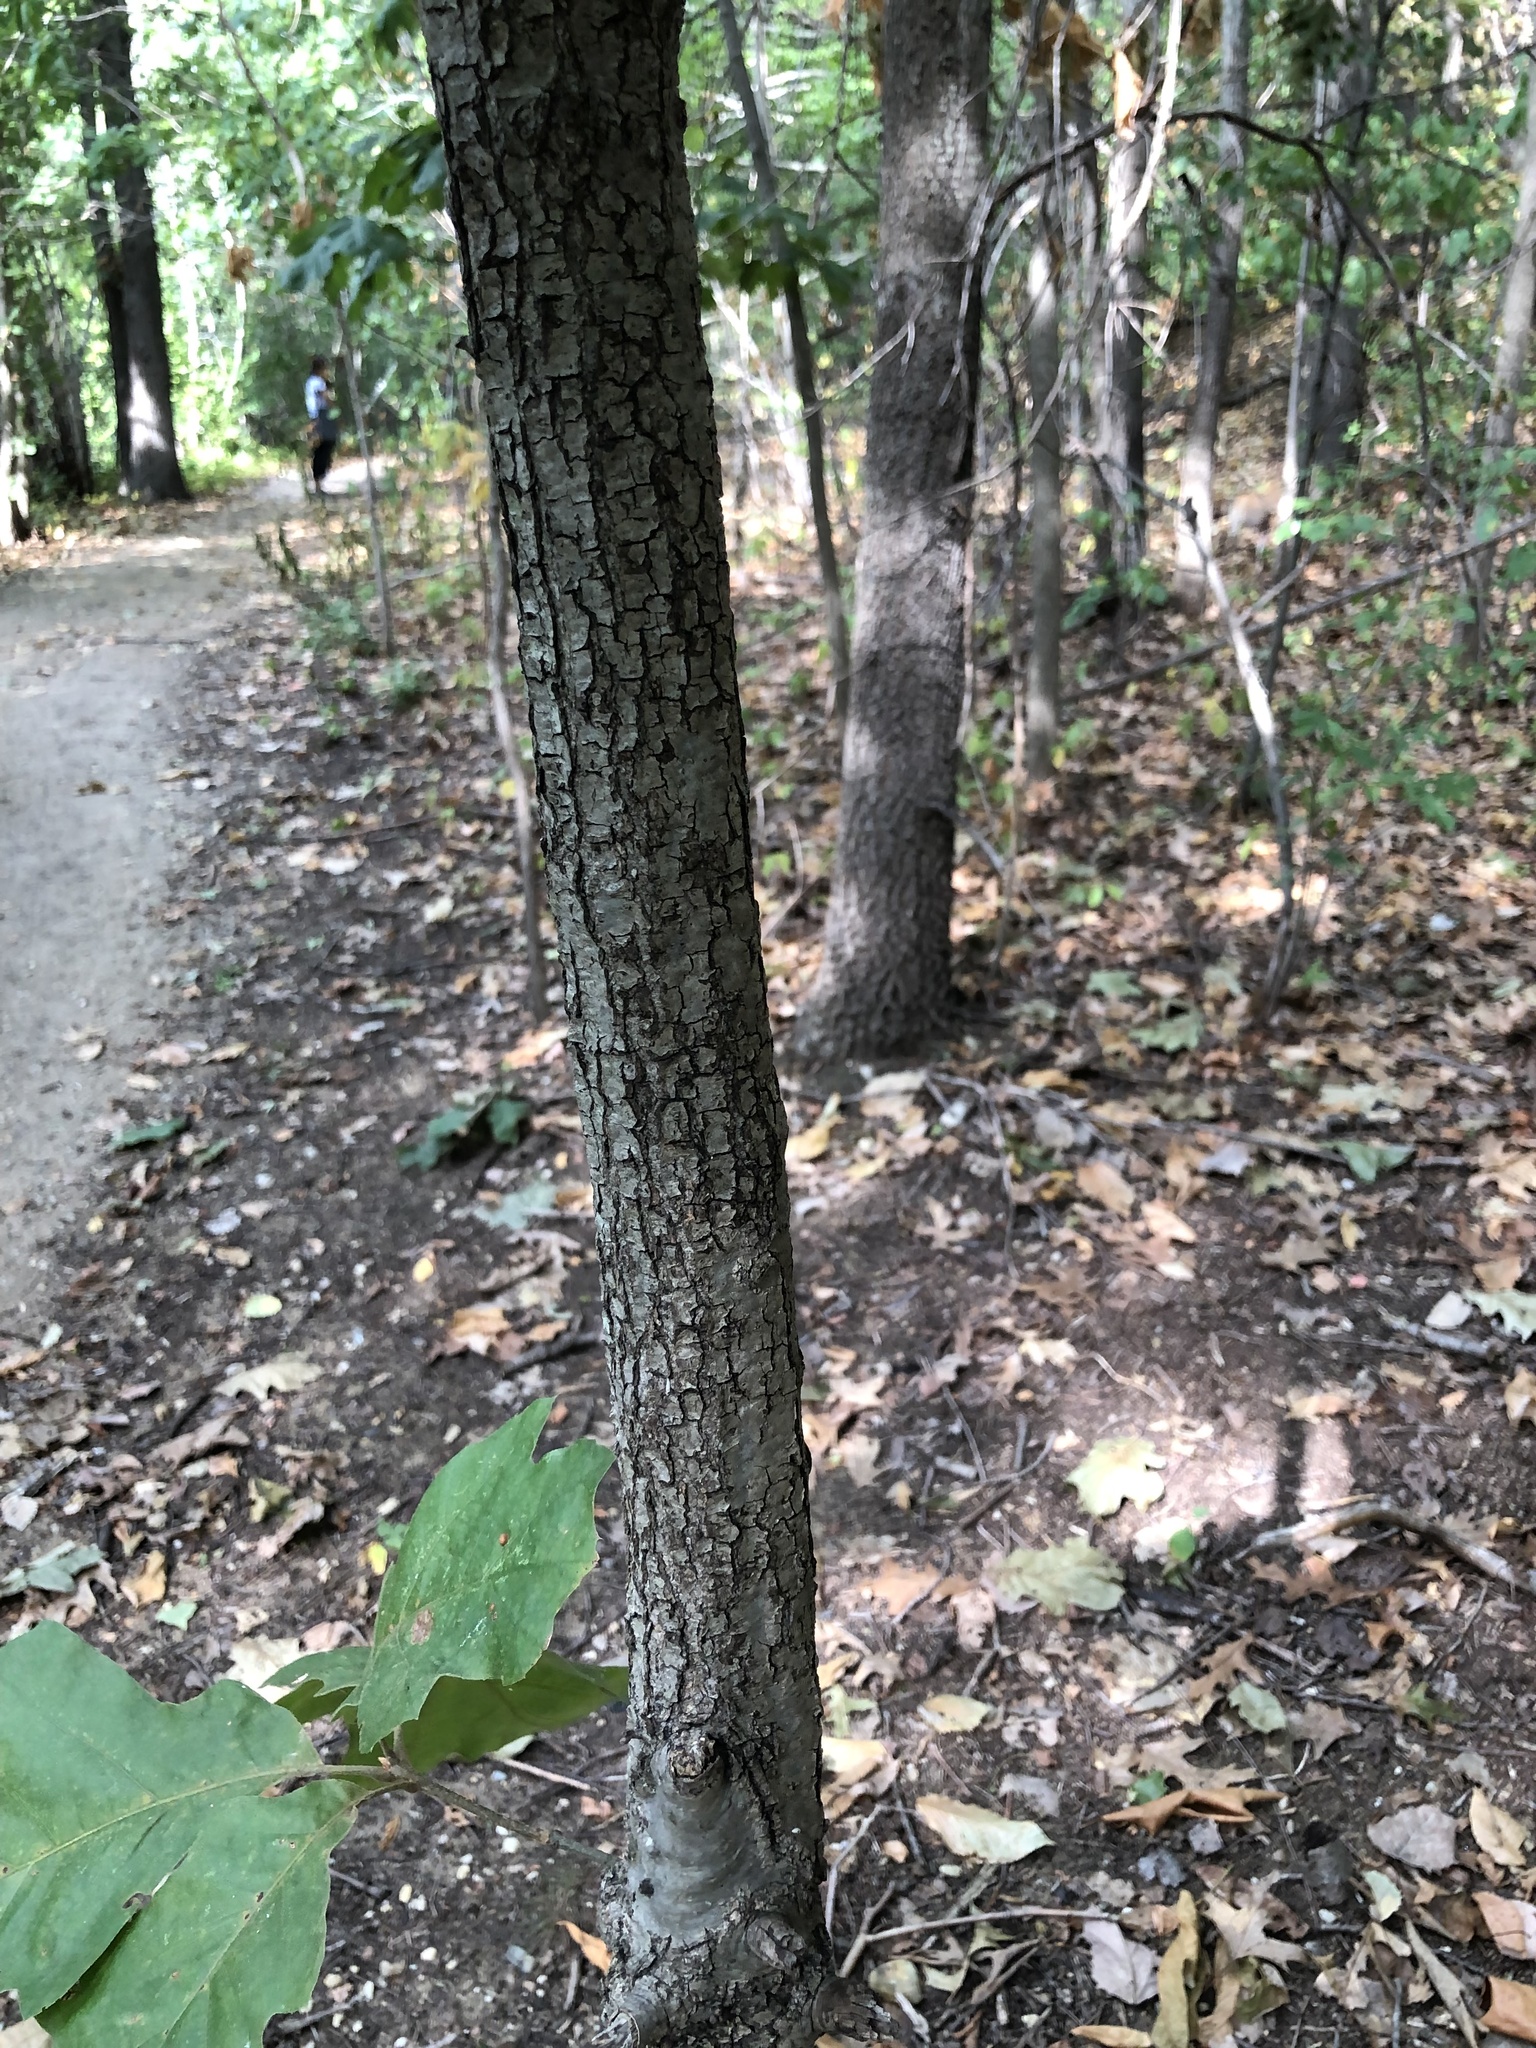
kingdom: Plantae
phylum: Tracheophyta
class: Magnoliopsida
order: Fagales
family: Fagaceae
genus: Quercus
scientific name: Quercus velutina
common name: Black oak
